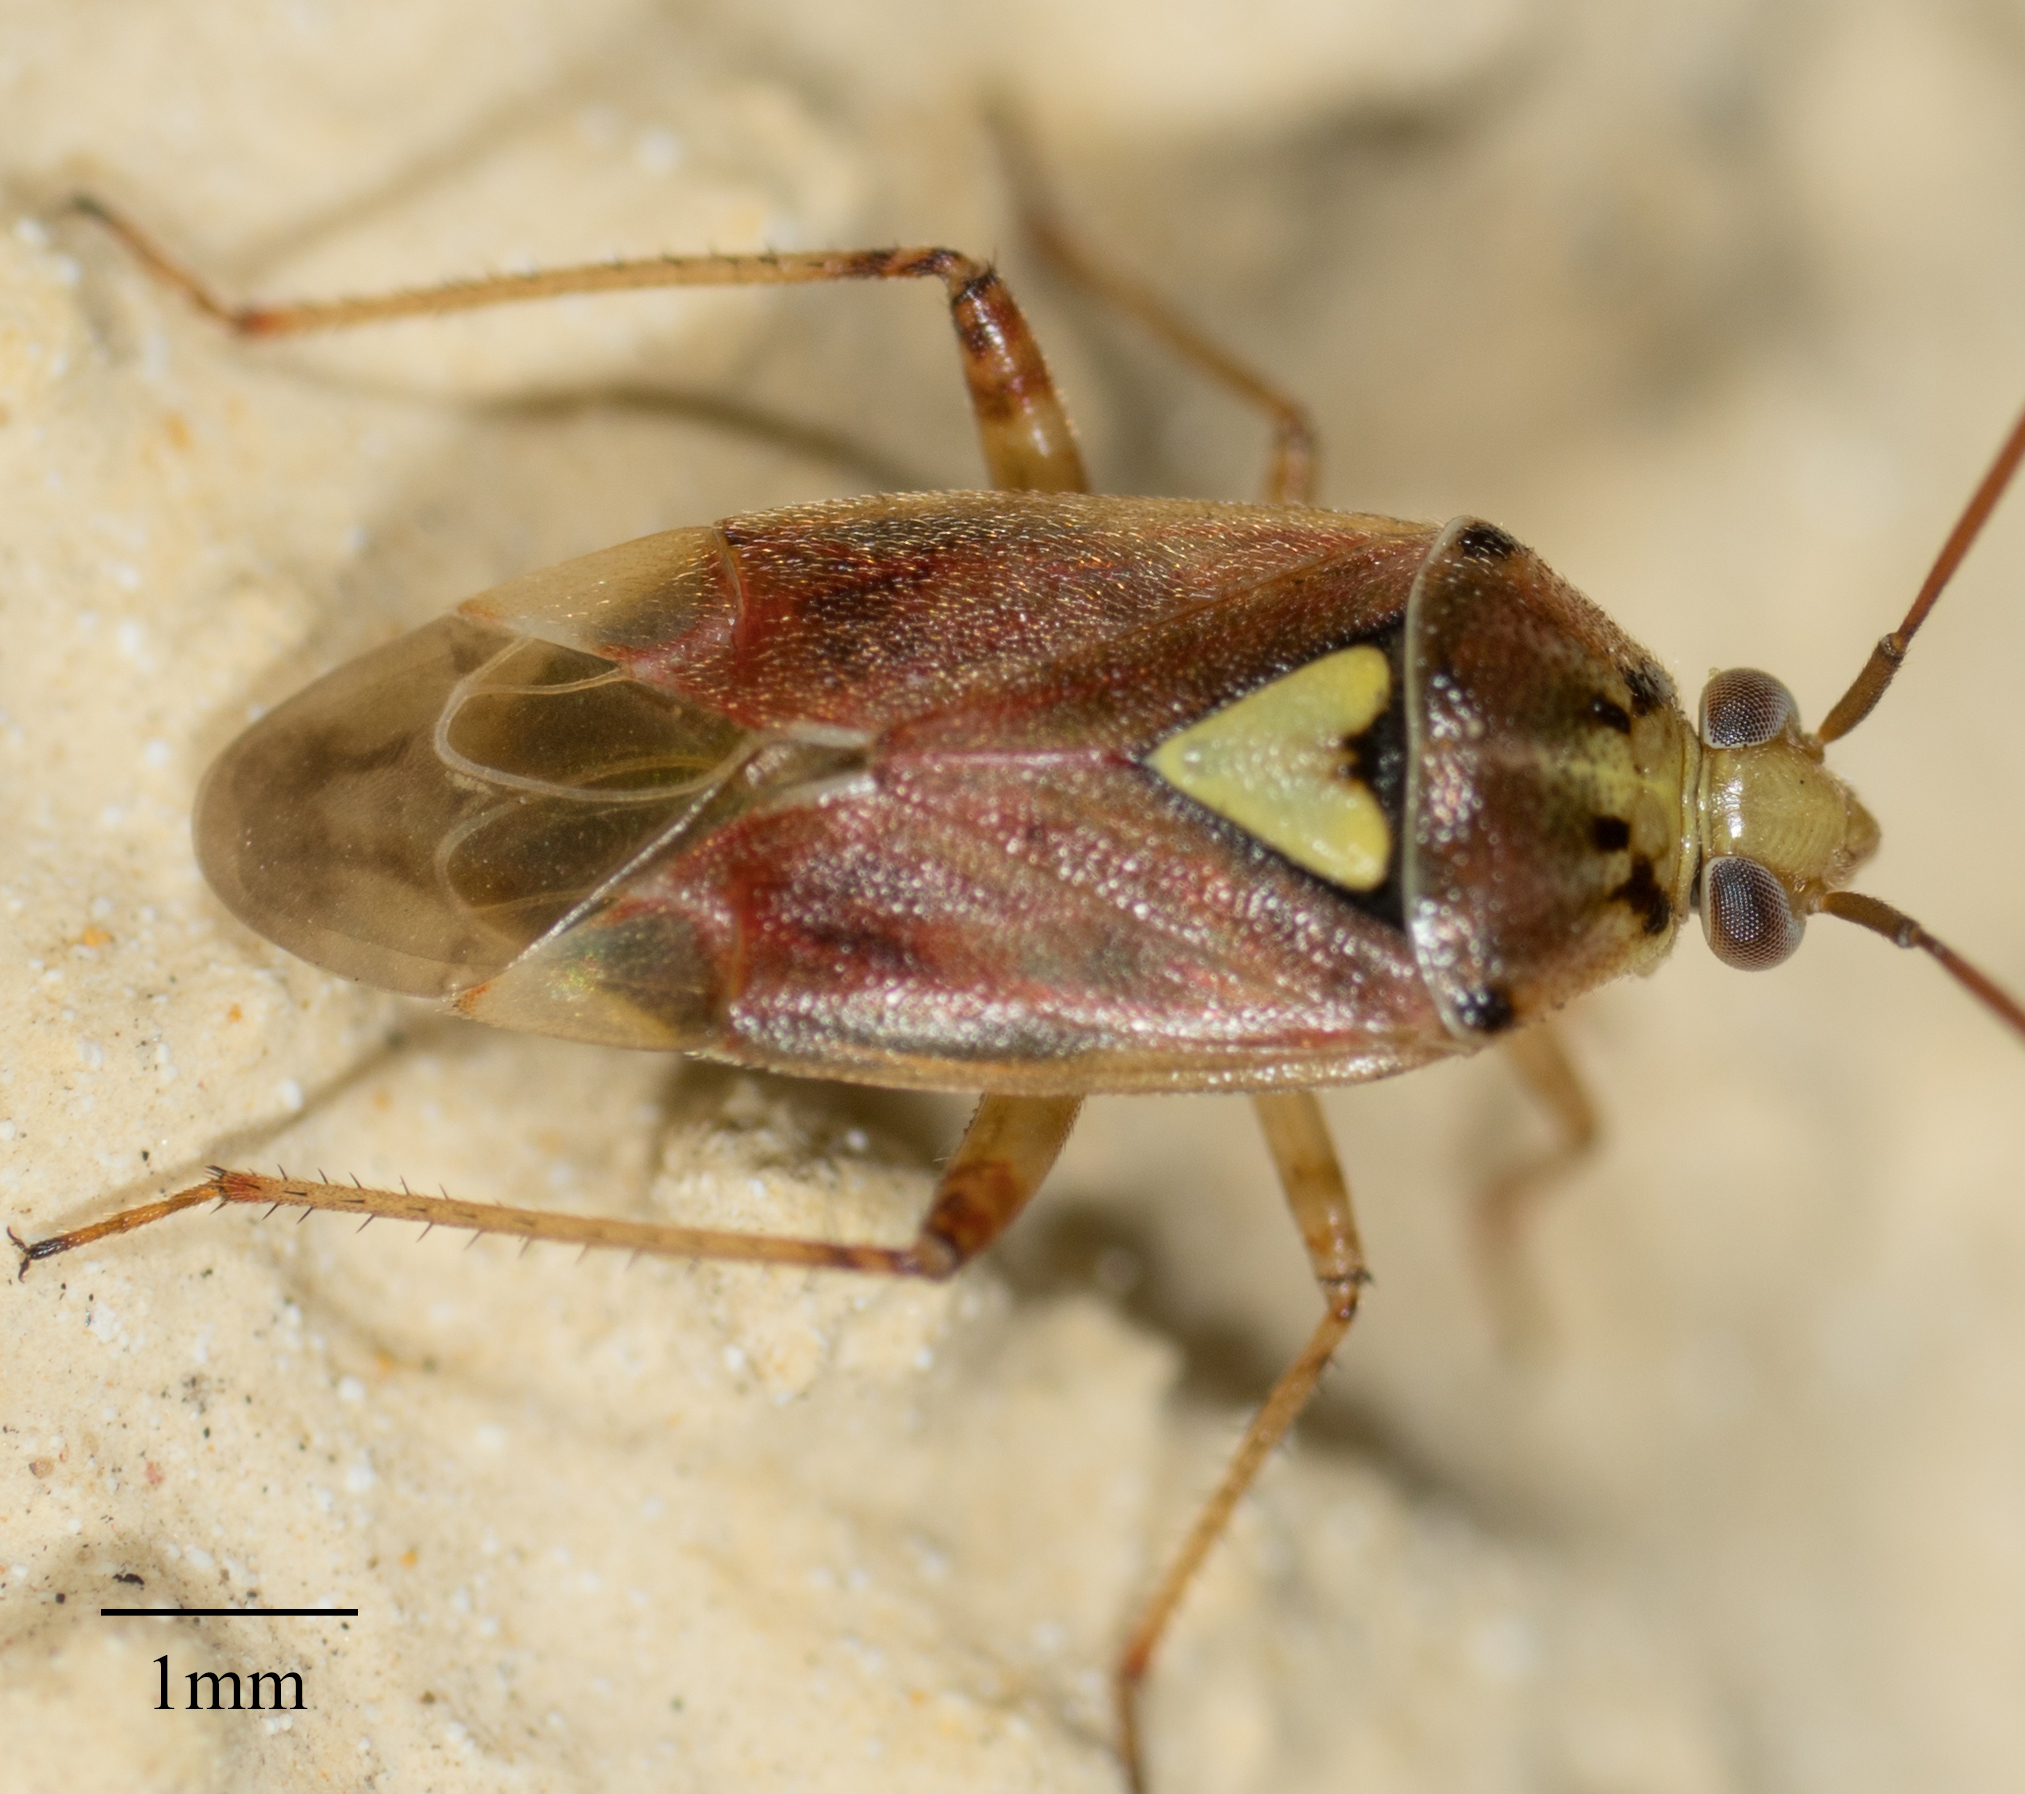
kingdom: Animalia
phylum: Arthropoda
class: Insecta
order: Hemiptera
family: Miridae
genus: Lygus
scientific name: Lygus hesperus
